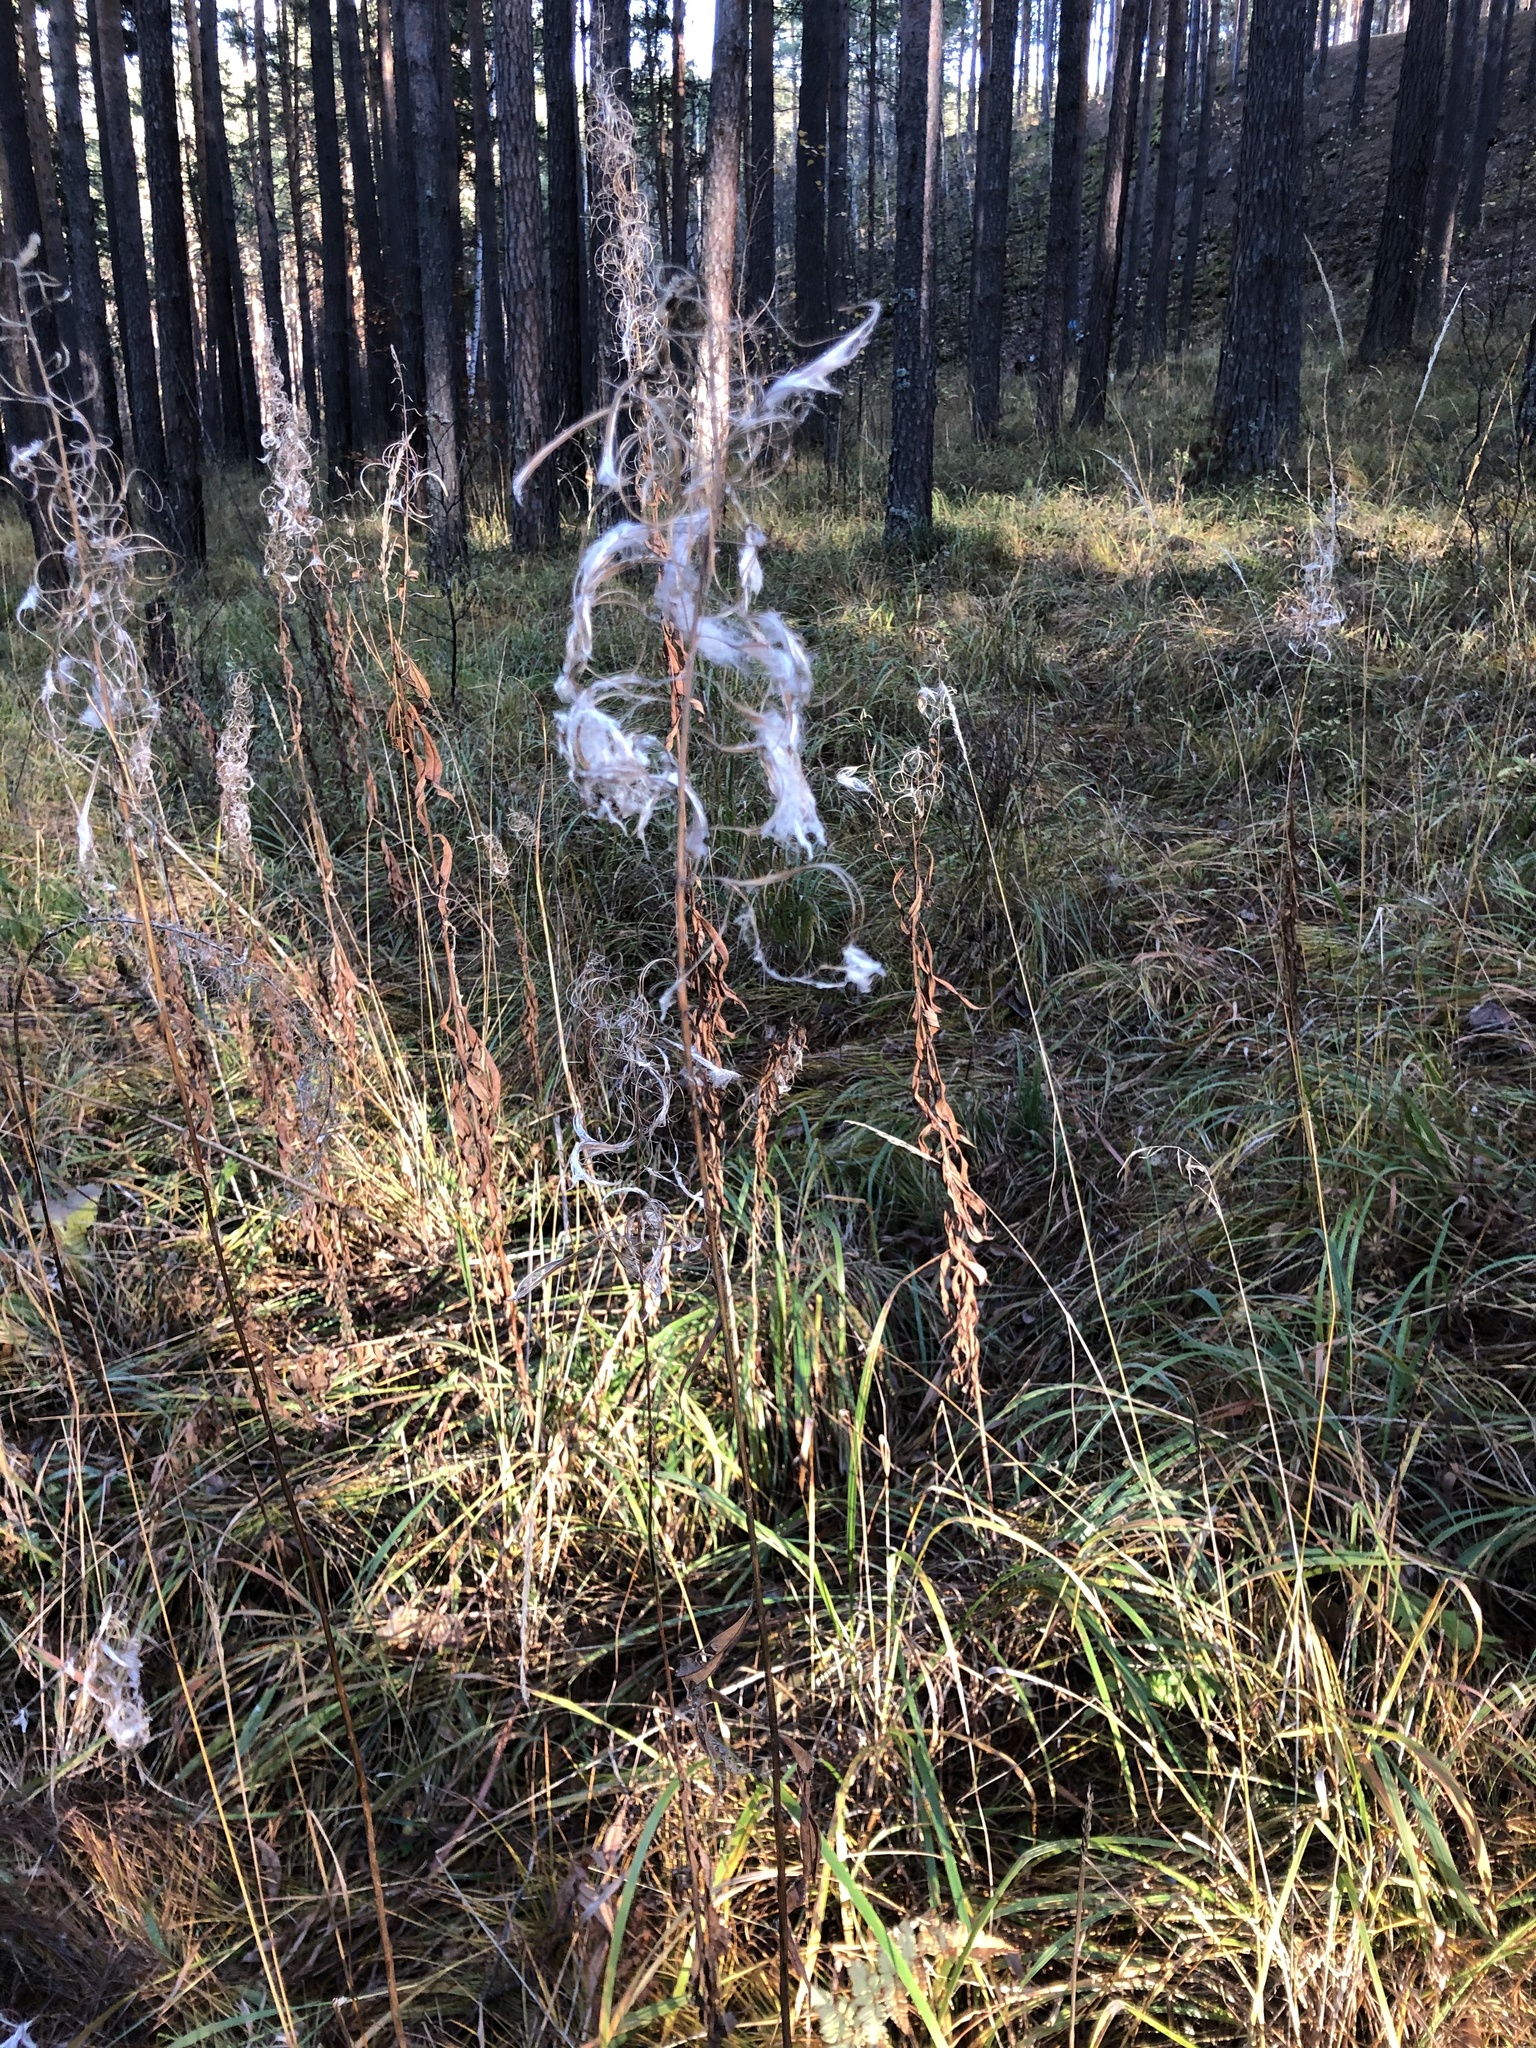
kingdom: Plantae
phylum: Tracheophyta
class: Magnoliopsida
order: Myrtales
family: Onagraceae
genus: Chamaenerion
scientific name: Chamaenerion angustifolium
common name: Fireweed
